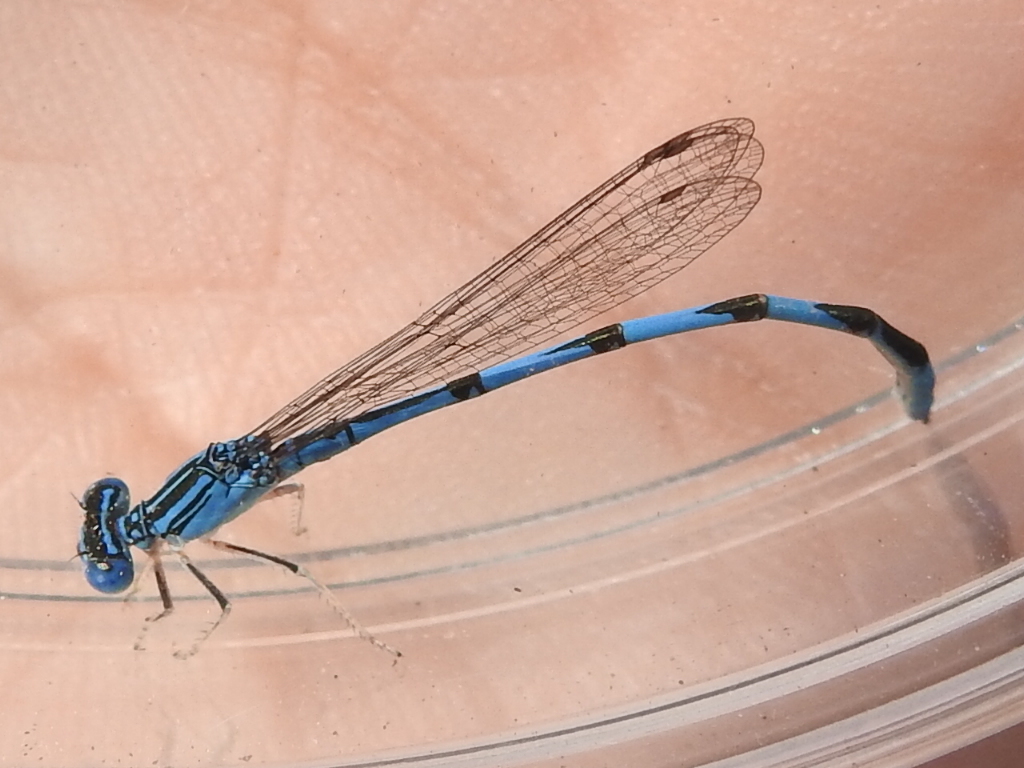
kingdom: Animalia
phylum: Arthropoda
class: Insecta
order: Odonata
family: Coenagrionidae
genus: Enallagma
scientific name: Enallagma basidens
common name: Double-striped bluet
